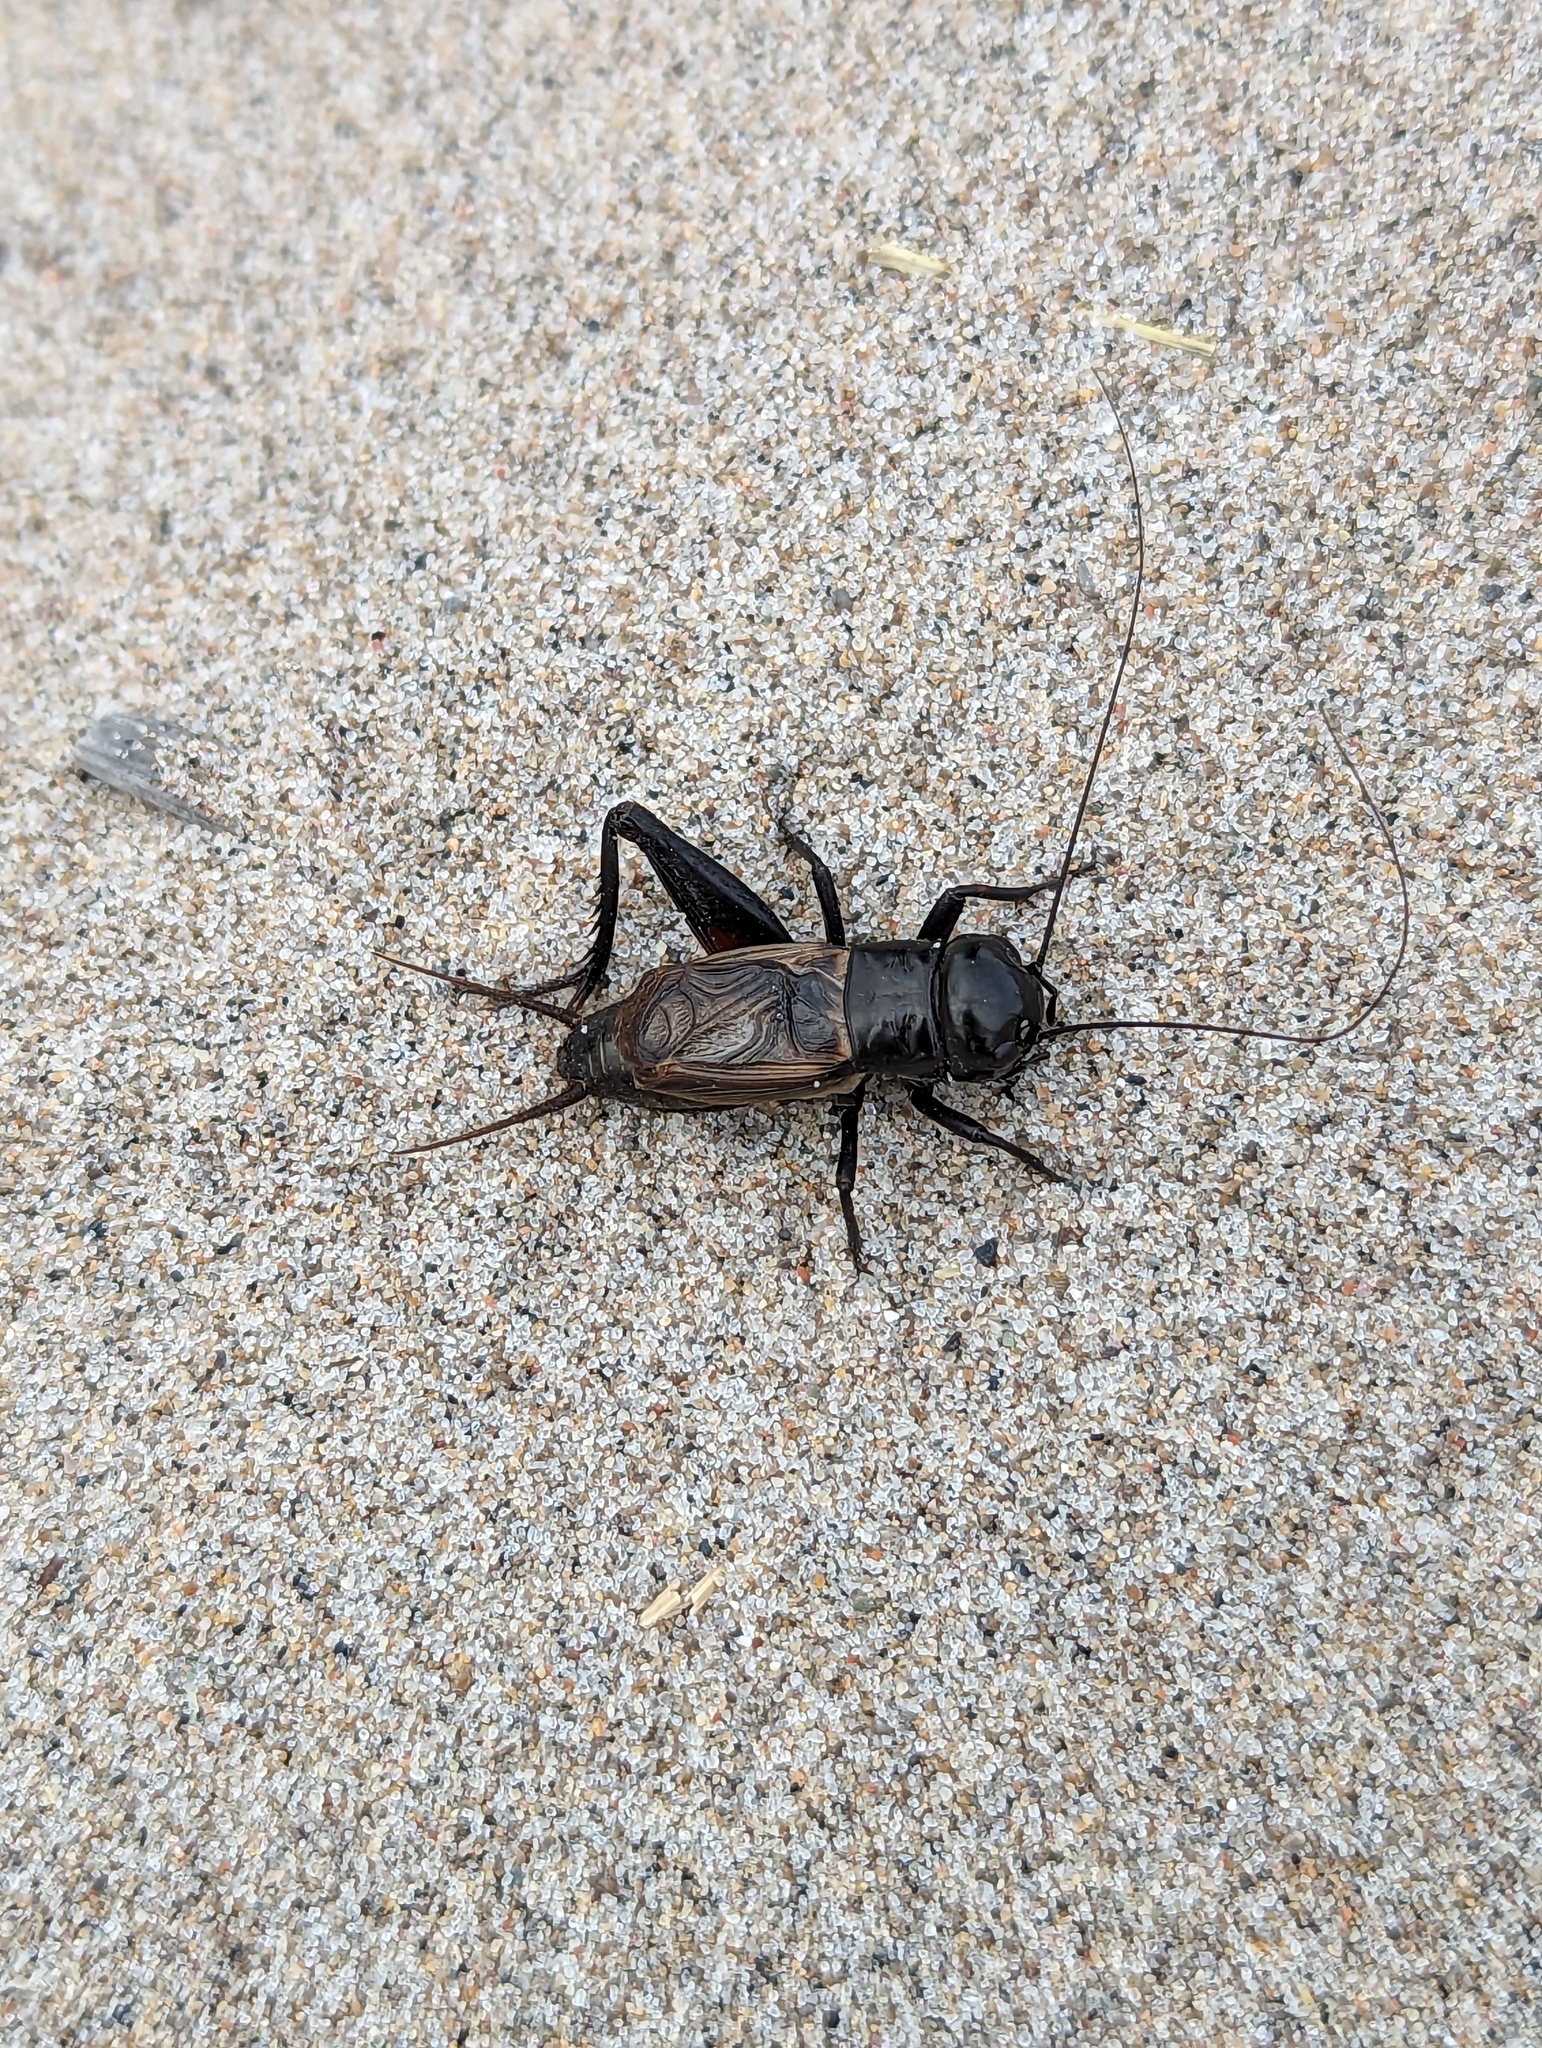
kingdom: Animalia
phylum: Arthropoda
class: Insecta
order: Orthoptera
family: Gryllidae
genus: Gryllus
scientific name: Gryllus pennsylvanicus
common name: Fall field cricket
